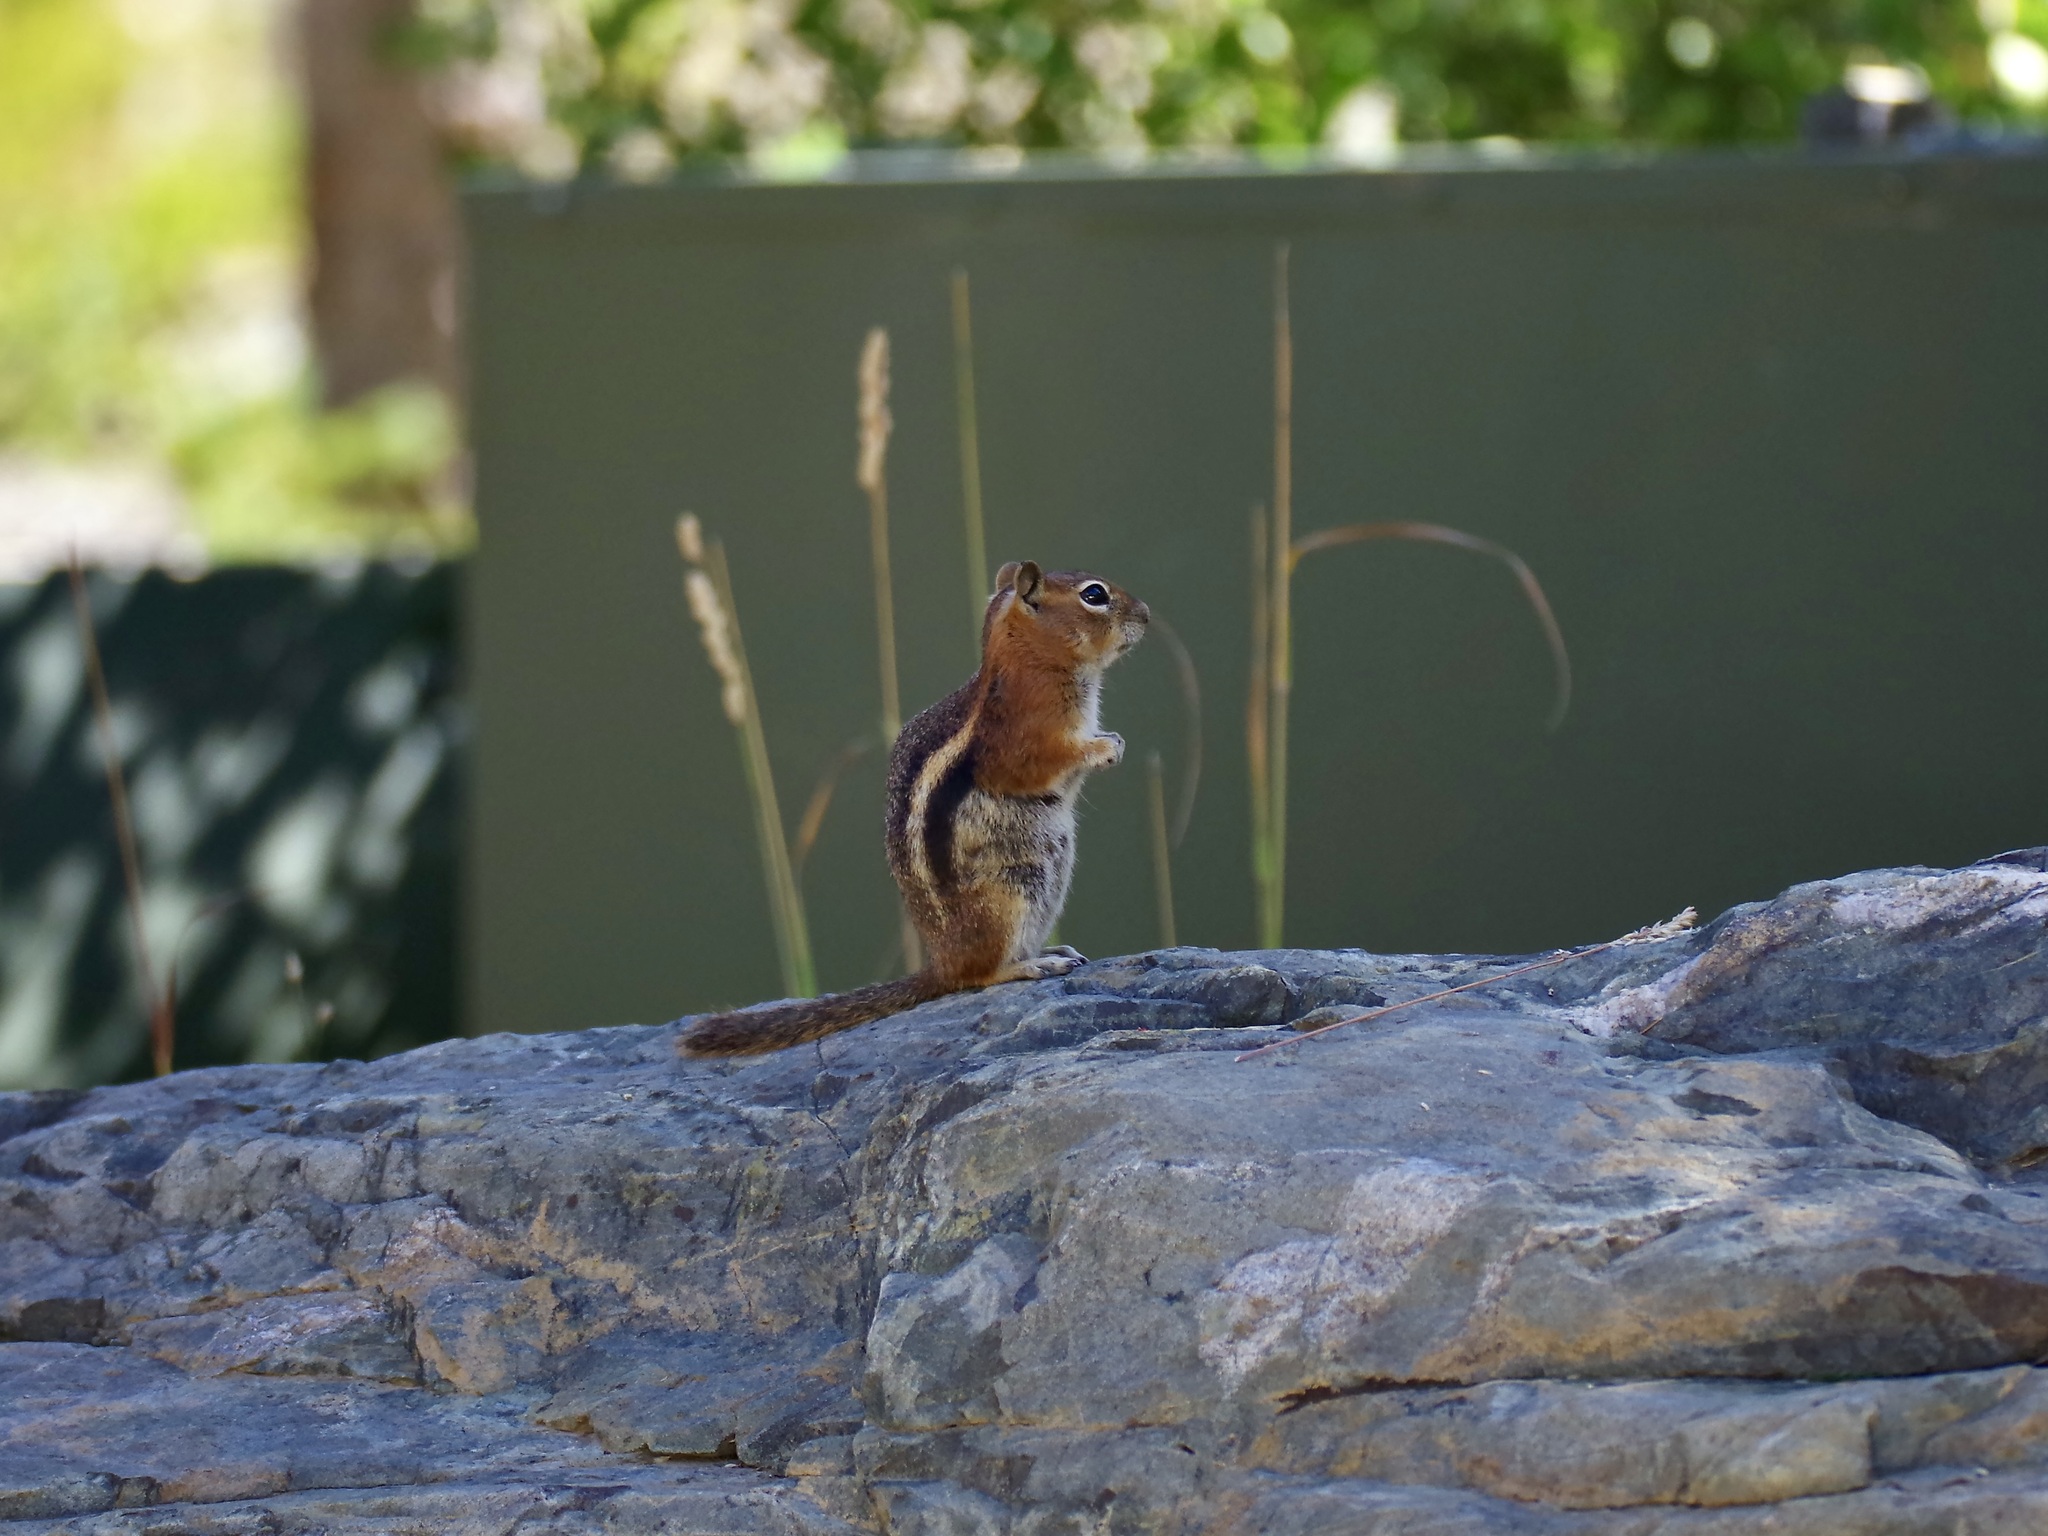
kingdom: Animalia
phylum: Chordata
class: Mammalia
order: Rodentia
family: Sciuridae
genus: Callospermophilus
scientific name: Callospermophilus lateralis
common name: Golden-mantled ground squirrel
